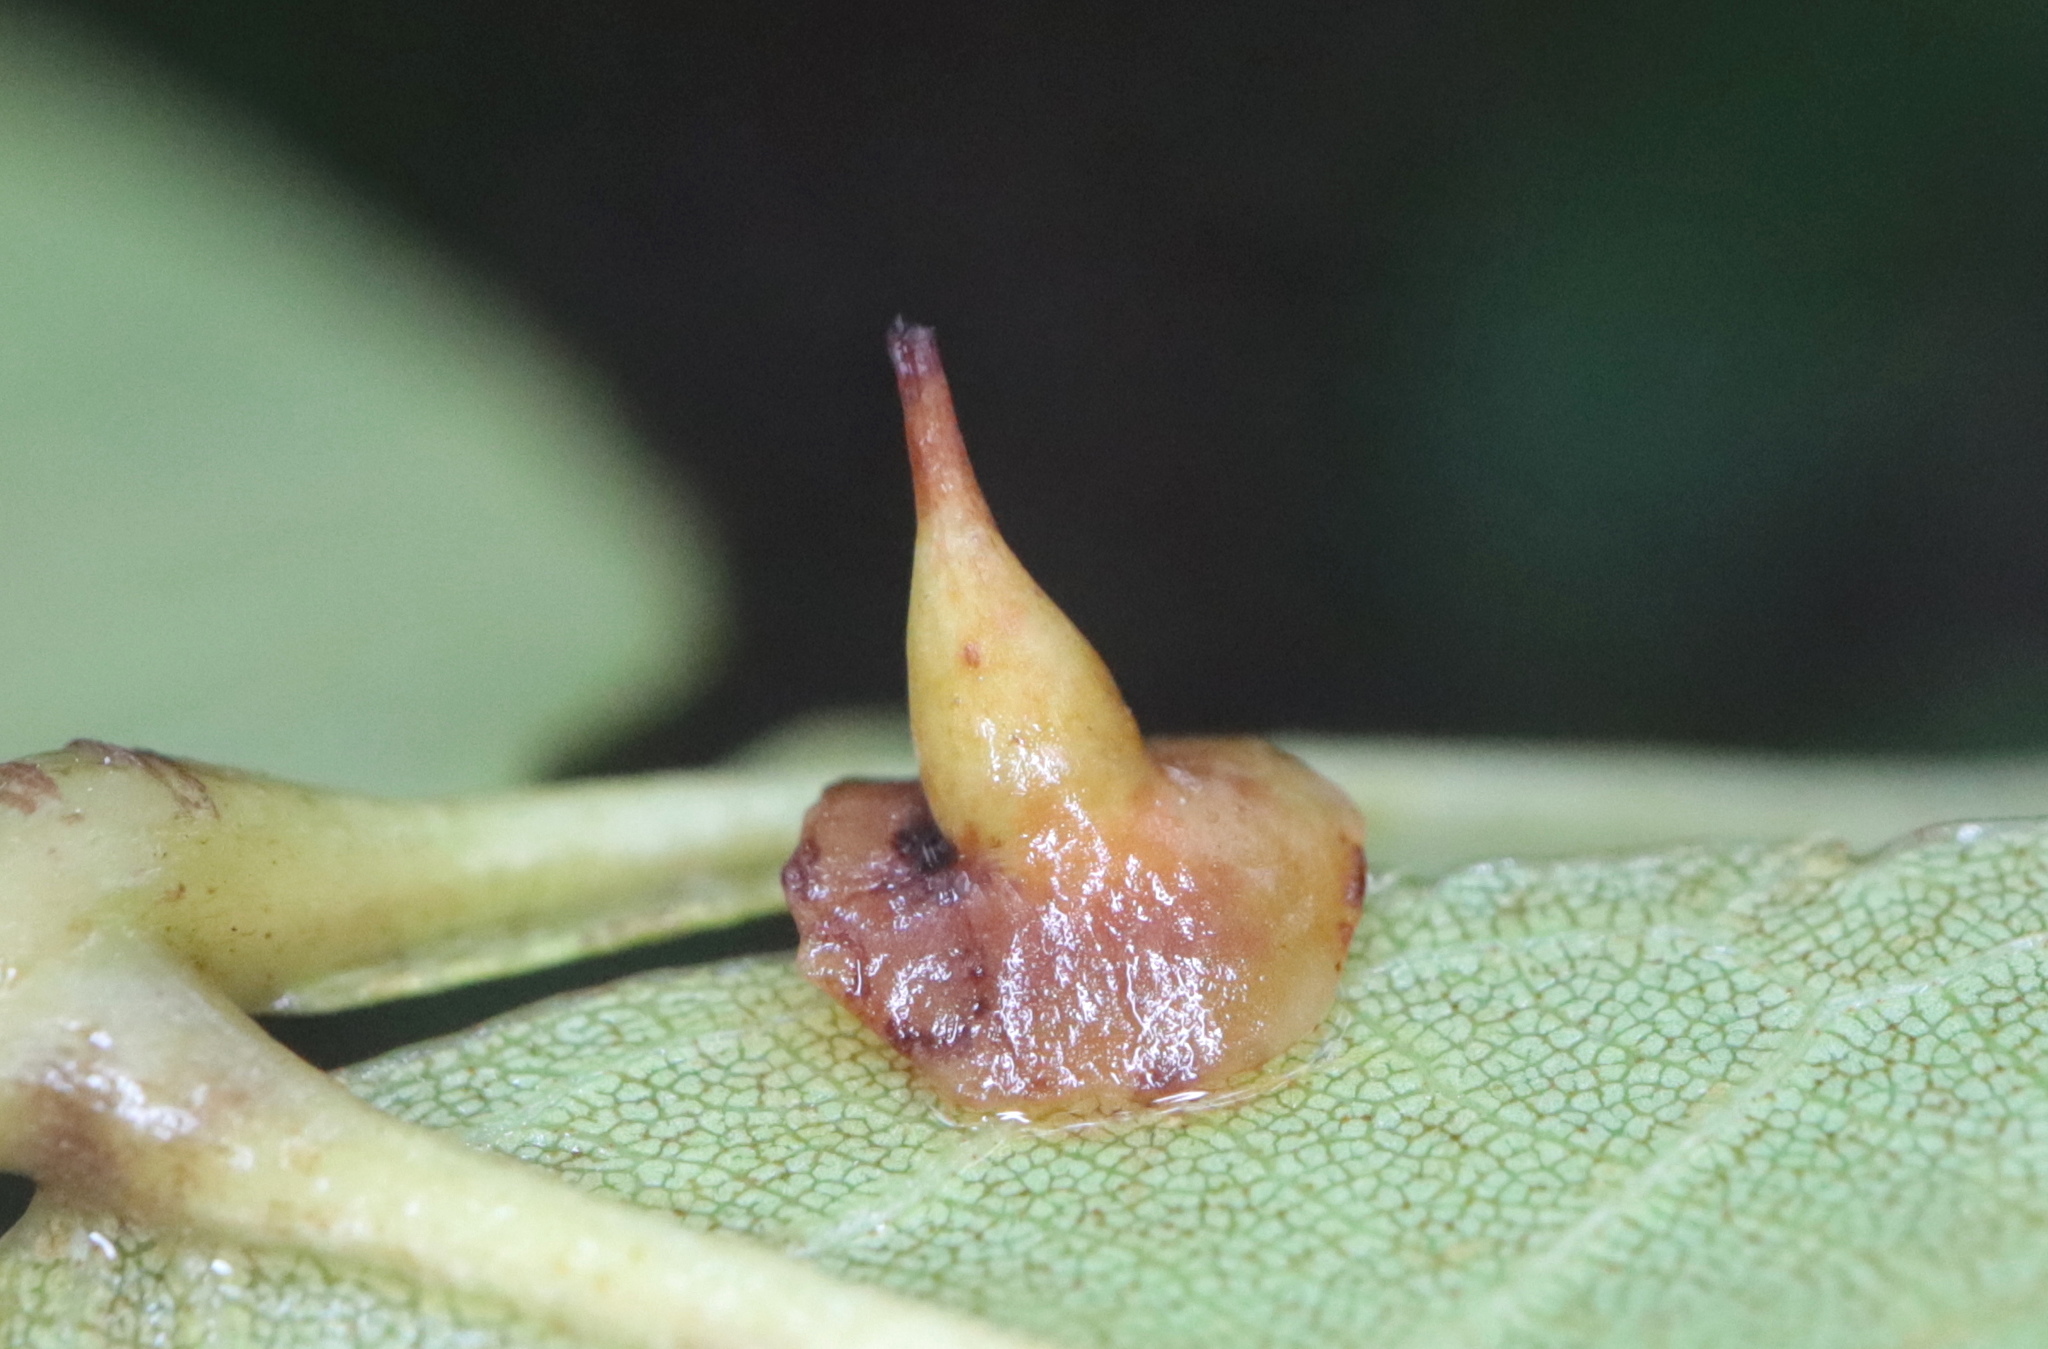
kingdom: Animalia
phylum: Arthropoda
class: Insecta
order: Diptera
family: Cecidomyiidae
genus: Caryomyia
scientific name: Caryomyia stellata
